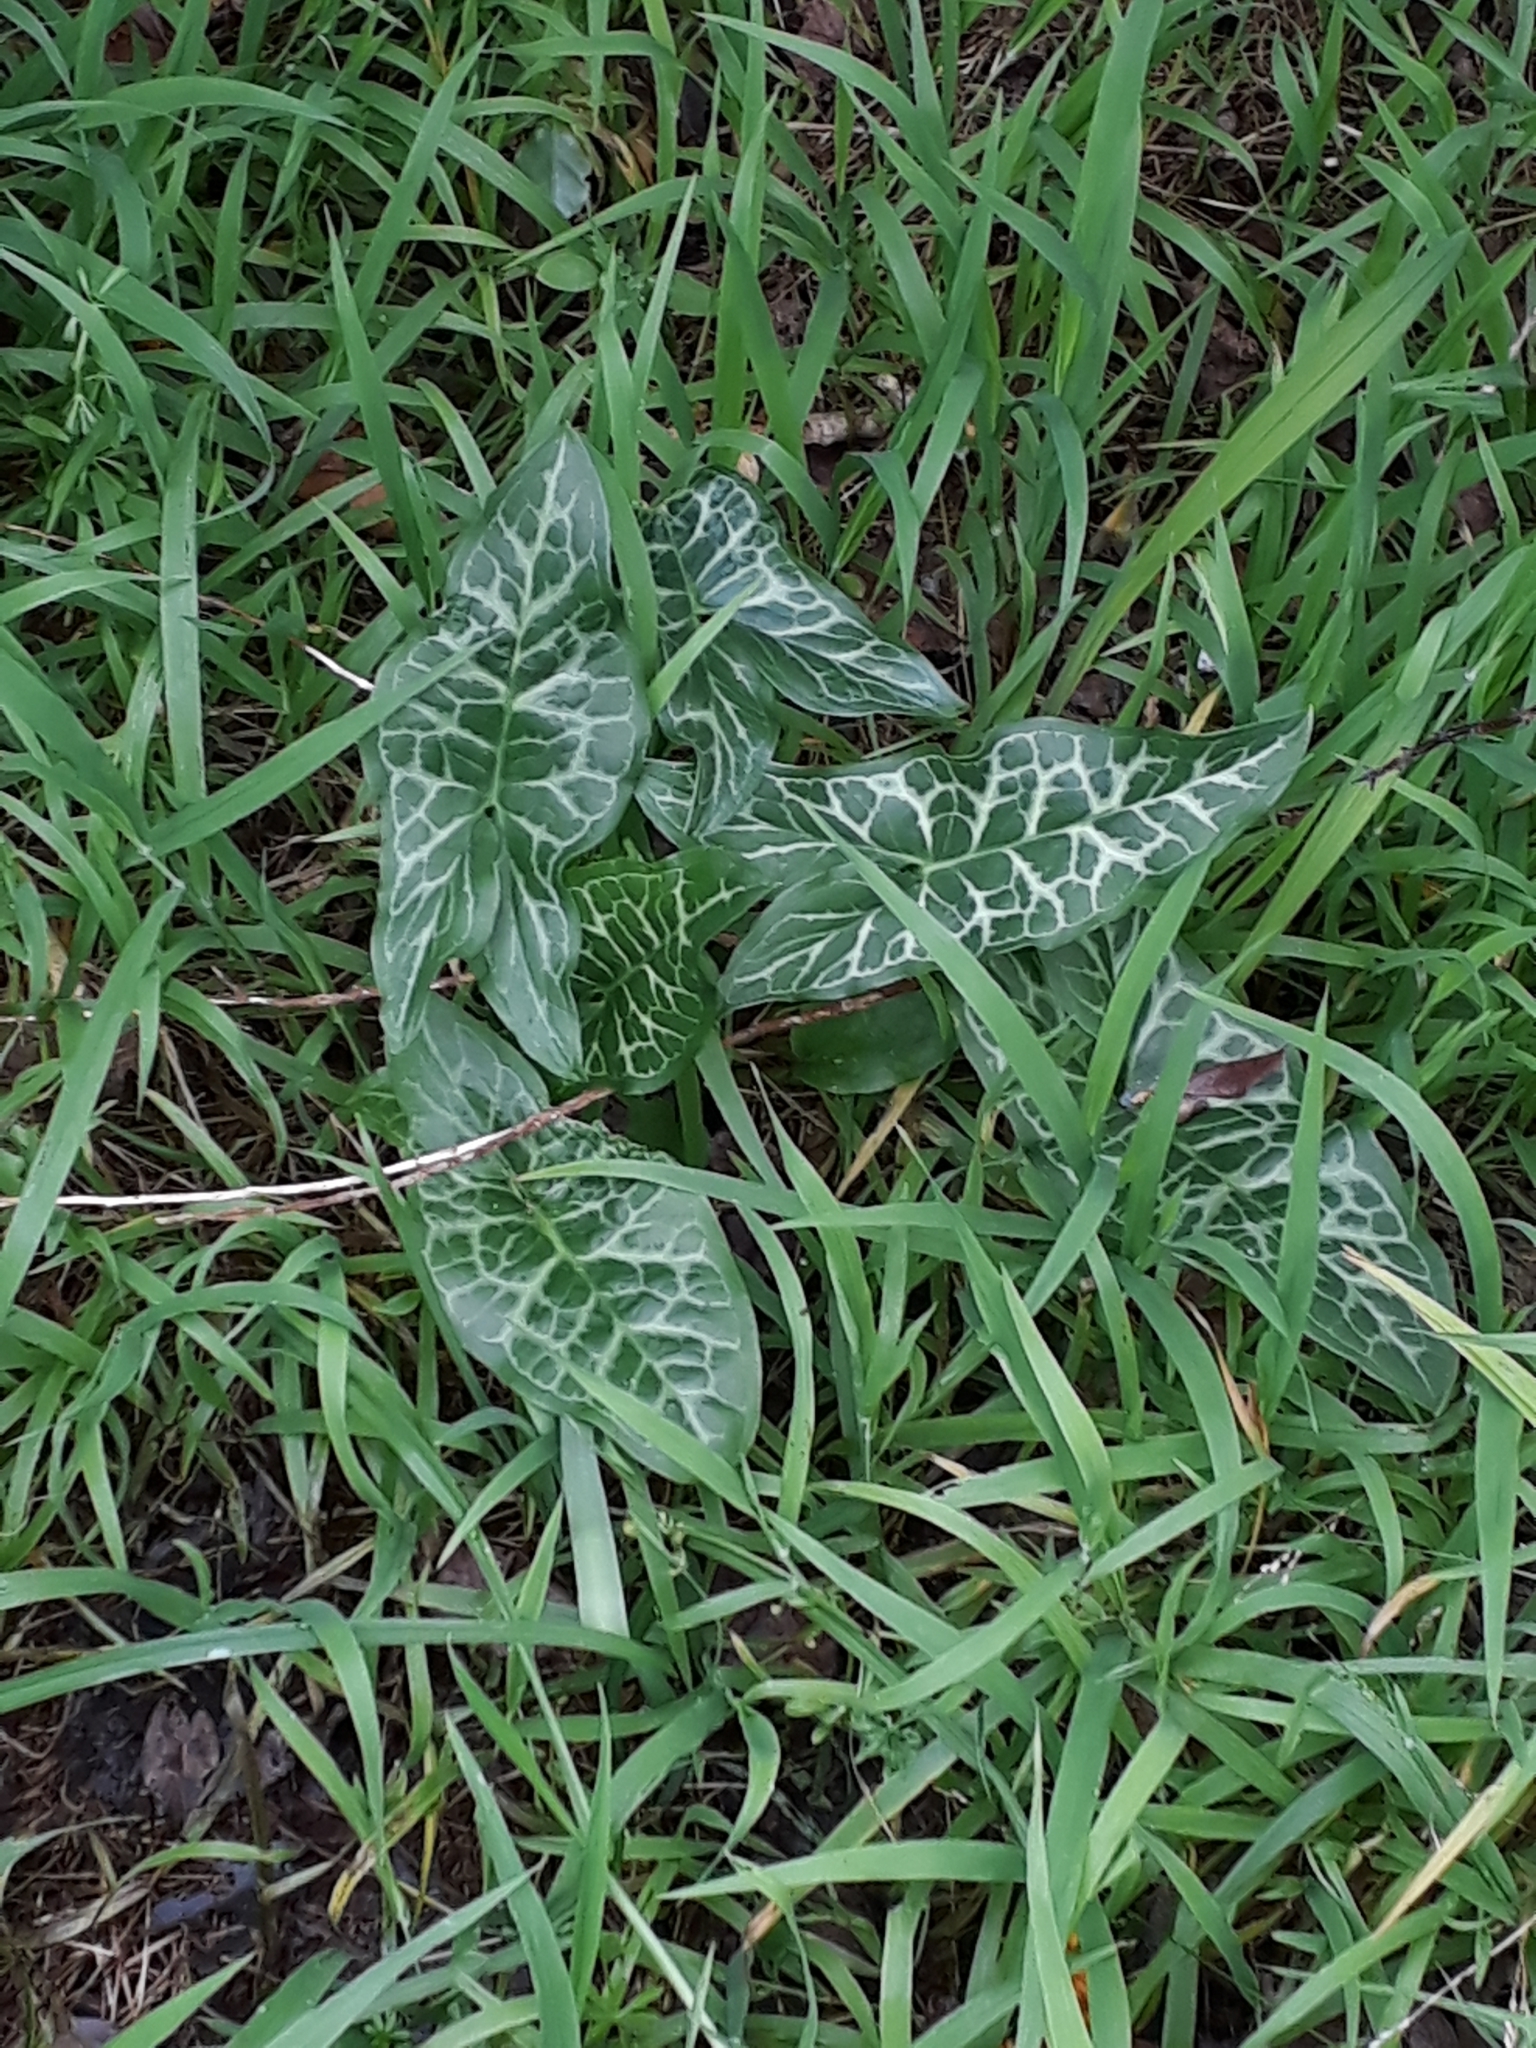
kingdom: Plantae
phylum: Tracheophyta
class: Liliopsida
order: Alismatales
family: Araceae
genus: Arum
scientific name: Arum italicum
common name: Italian lords-and-ladies
